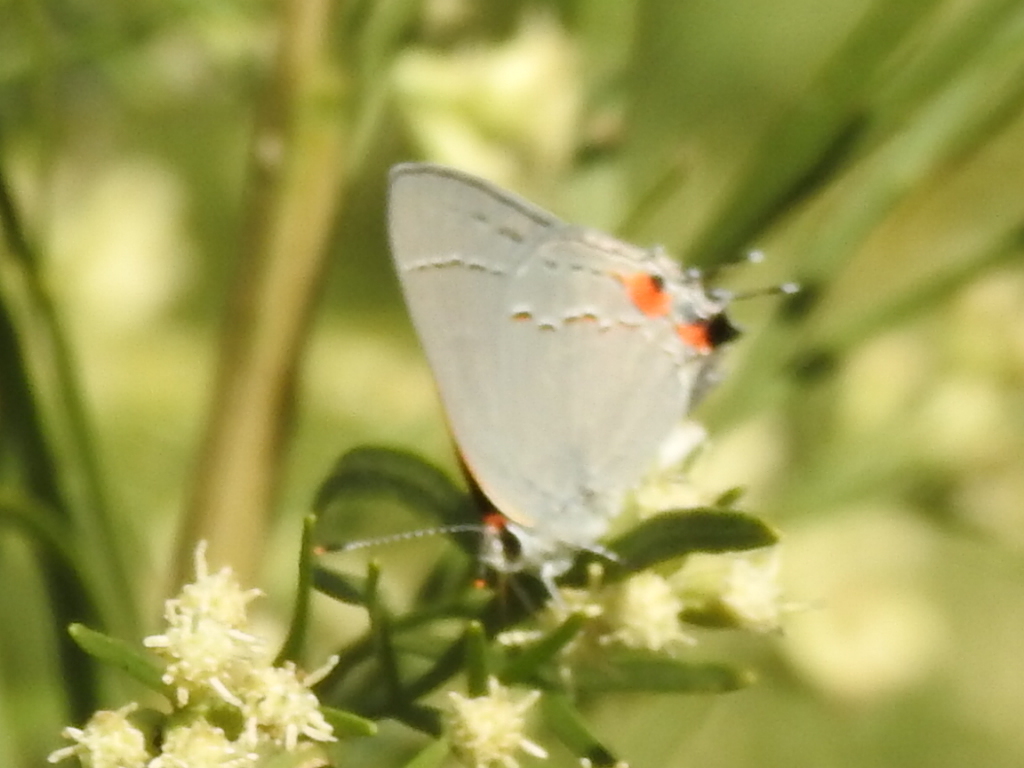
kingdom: Animalia
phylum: Arthropoda
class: Insecta
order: Lepidoptera
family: Lycaenidae
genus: Strymon
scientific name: Strymon melinus
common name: Gray hairstreak
